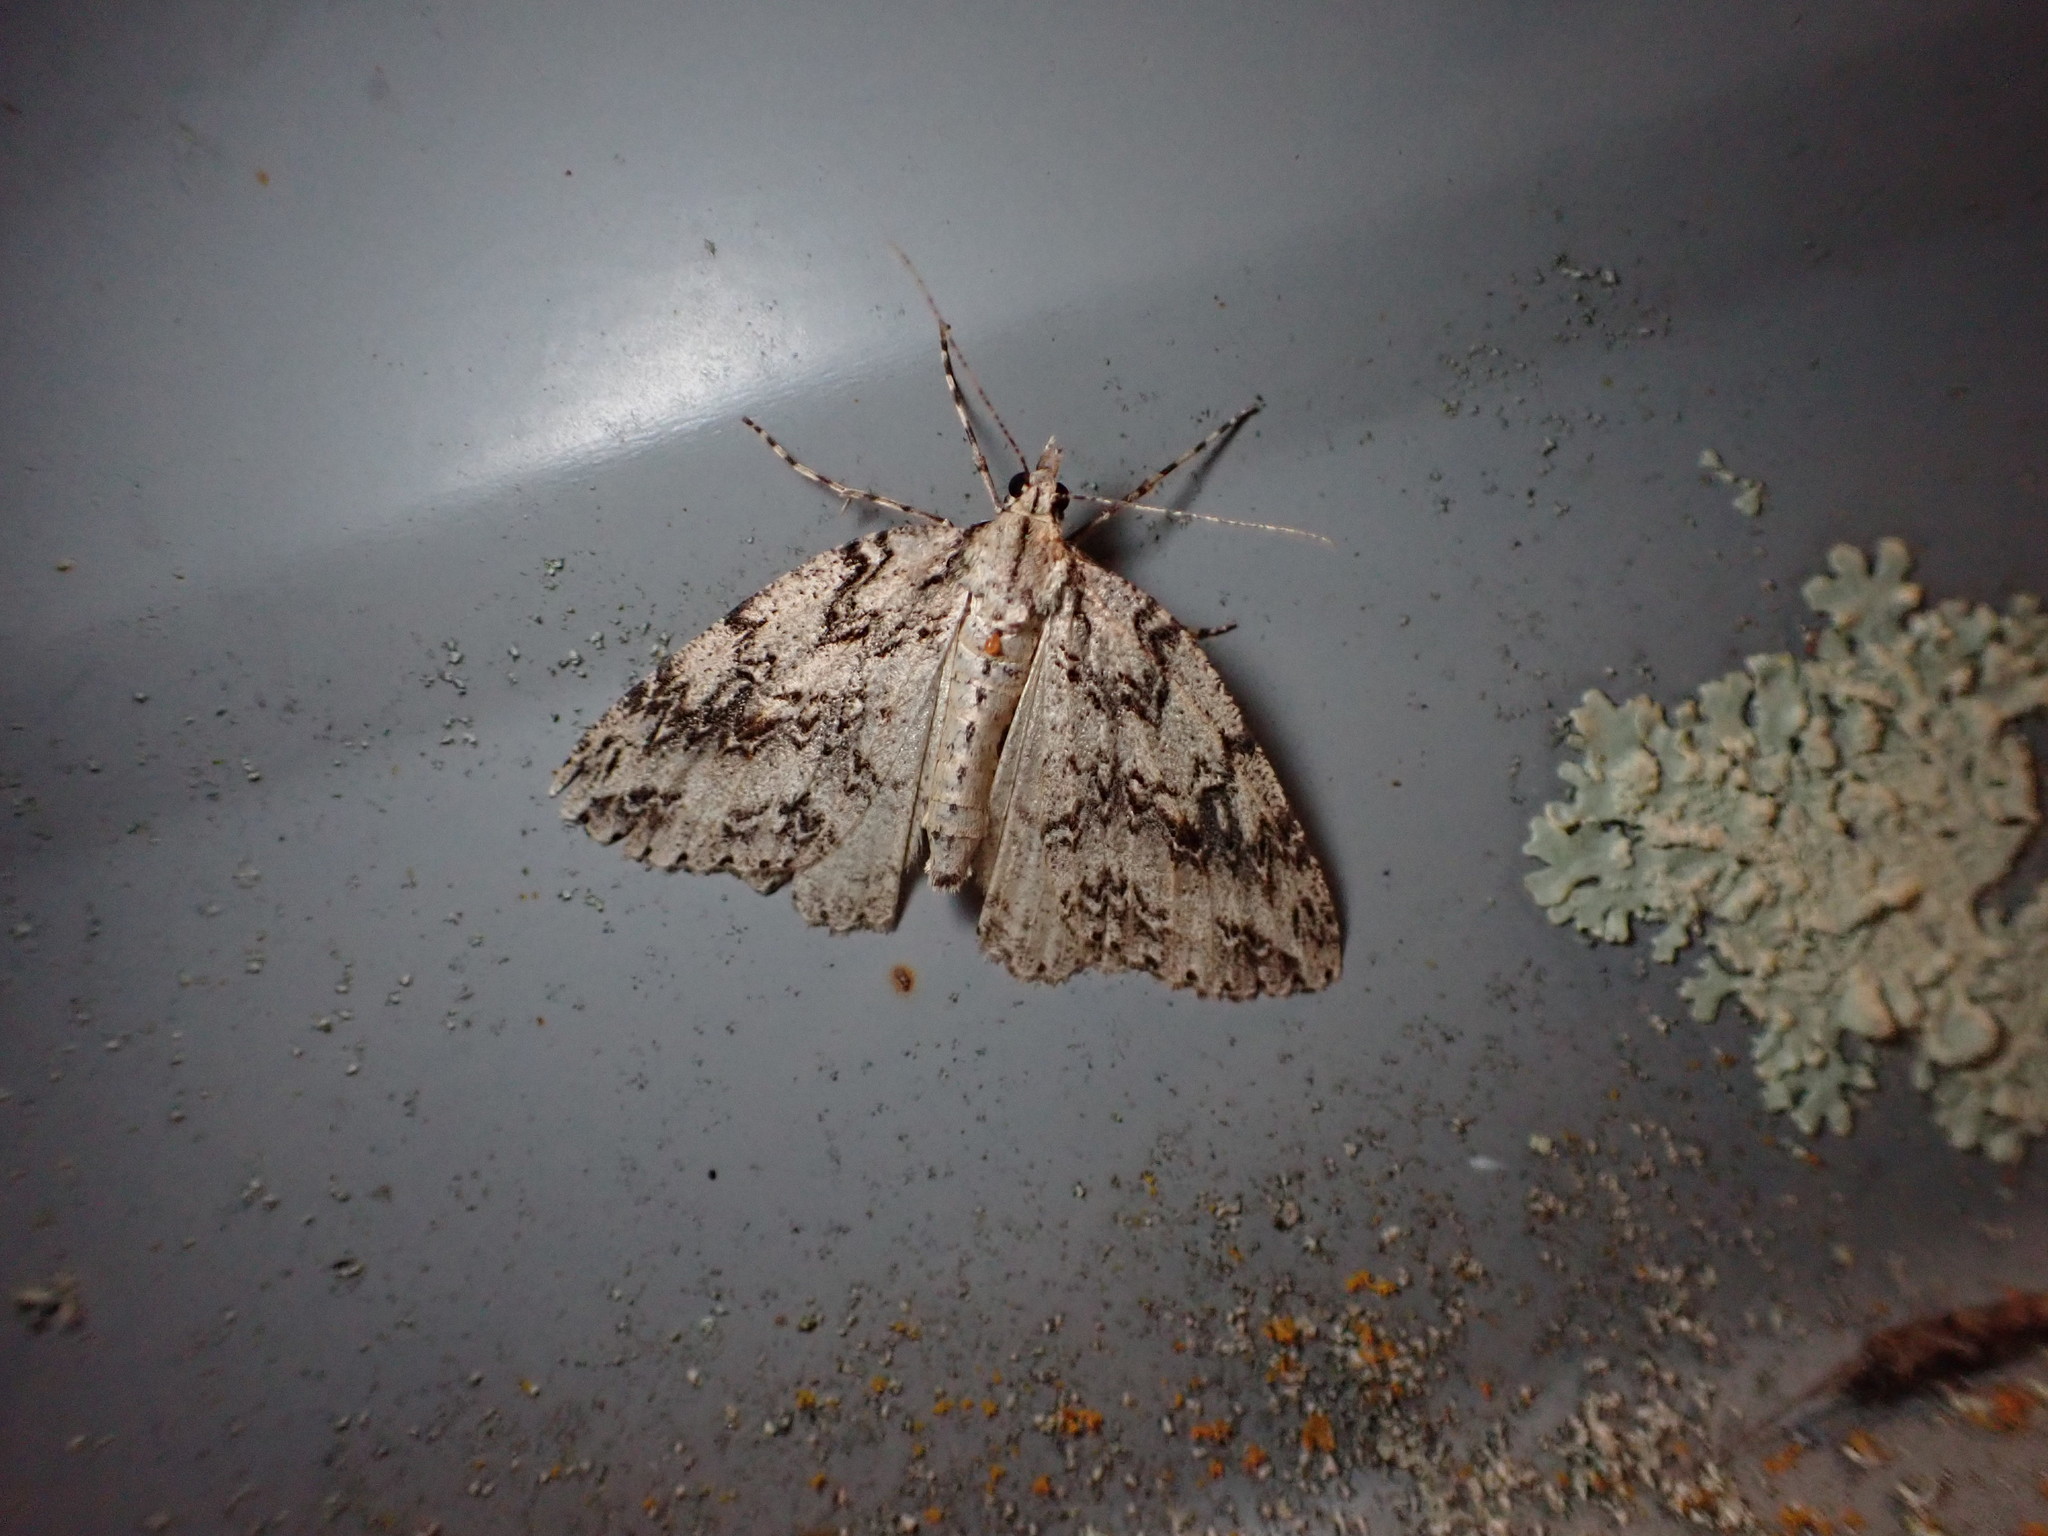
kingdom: Animalia
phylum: Arthropoda
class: Insecta
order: Lepidoptera
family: Geometridae
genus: Pseudocoremia
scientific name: Pseudocoremia rudisata
